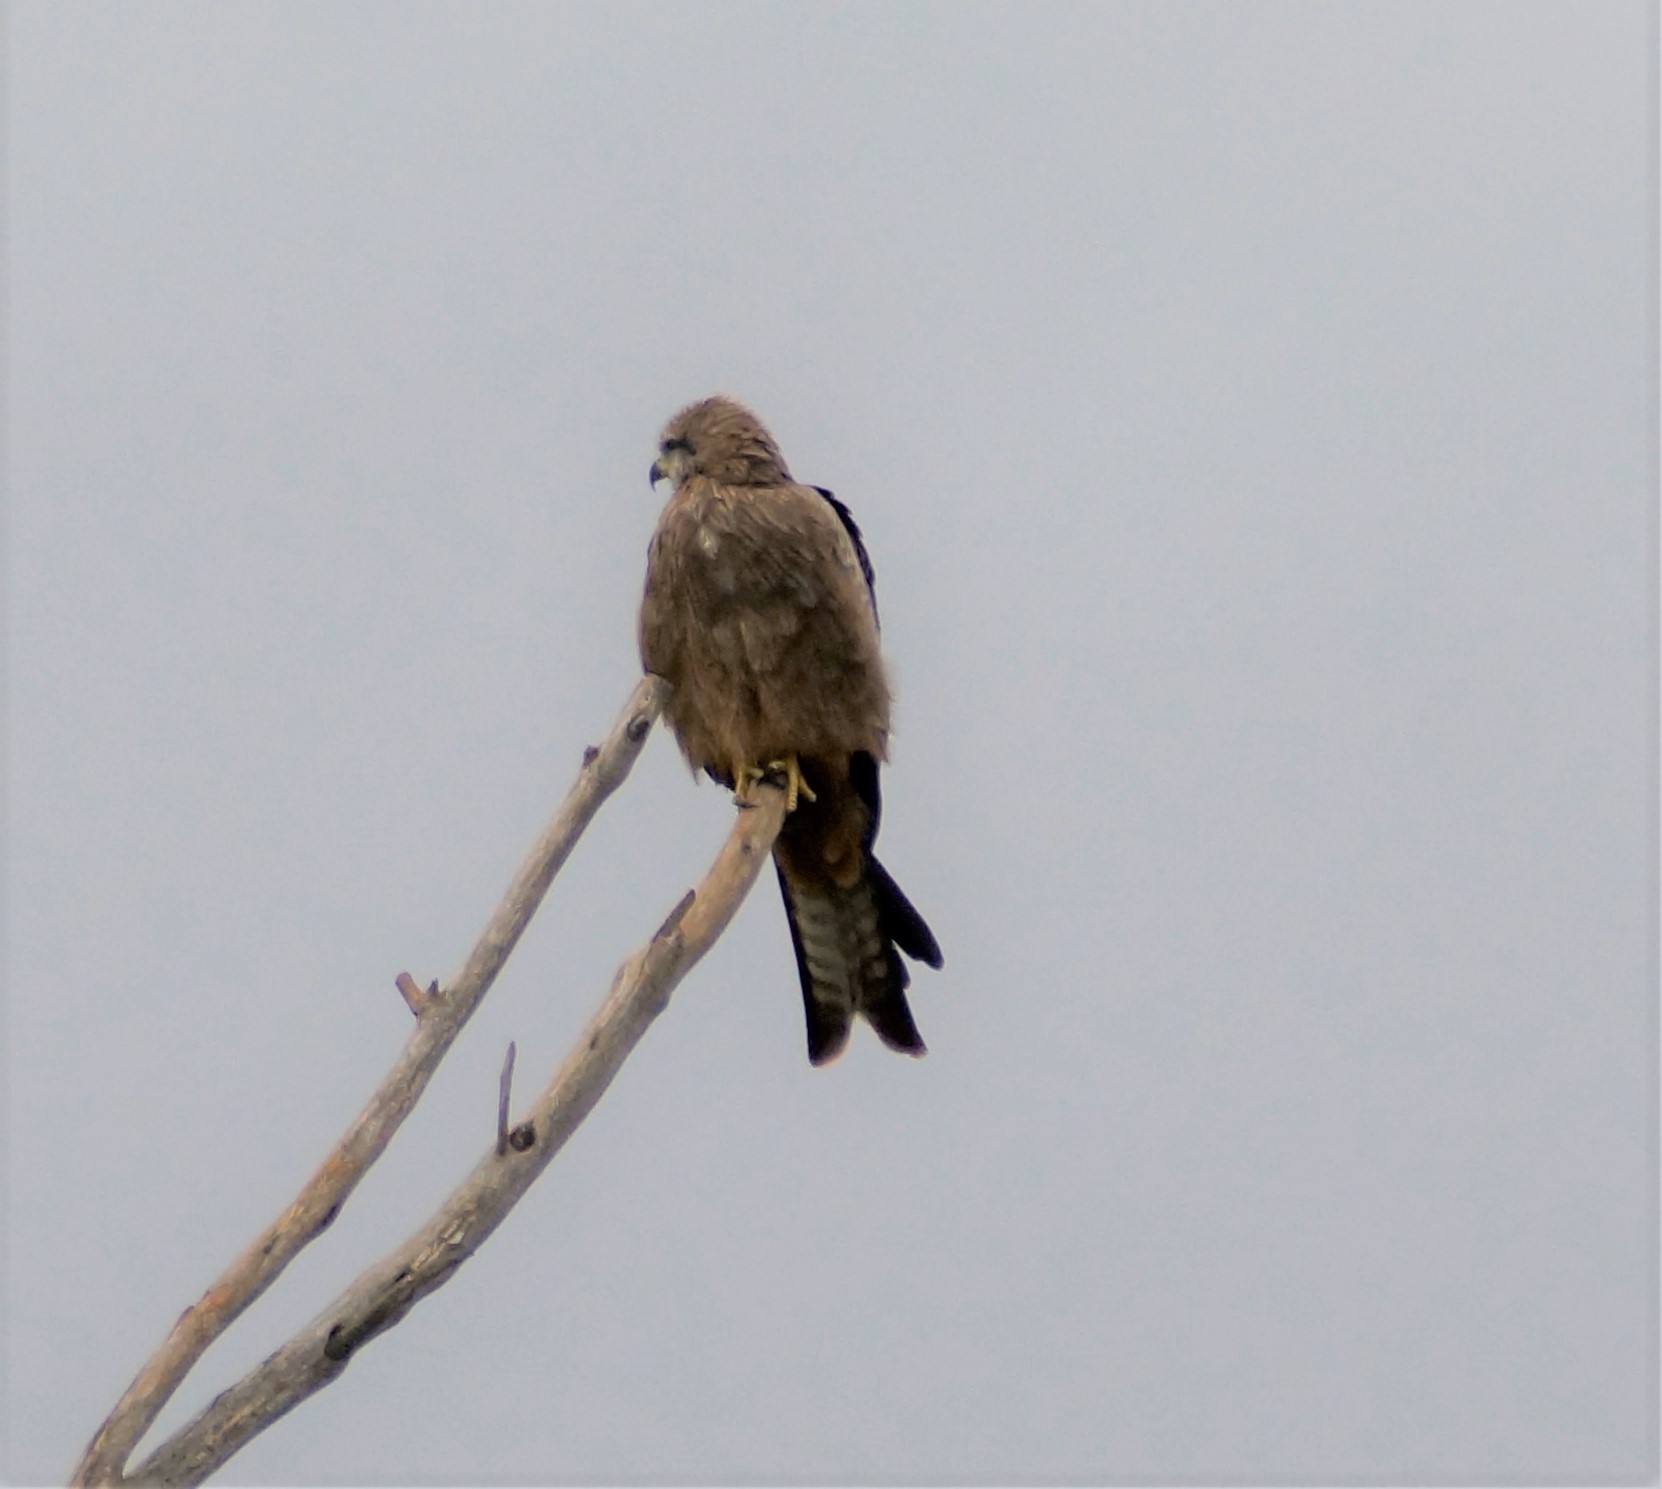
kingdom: Animalia
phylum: Chordata
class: Aves
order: Accipitriformes
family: Accipitridae
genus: Milvus
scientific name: Milvus migrans
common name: Black kite
